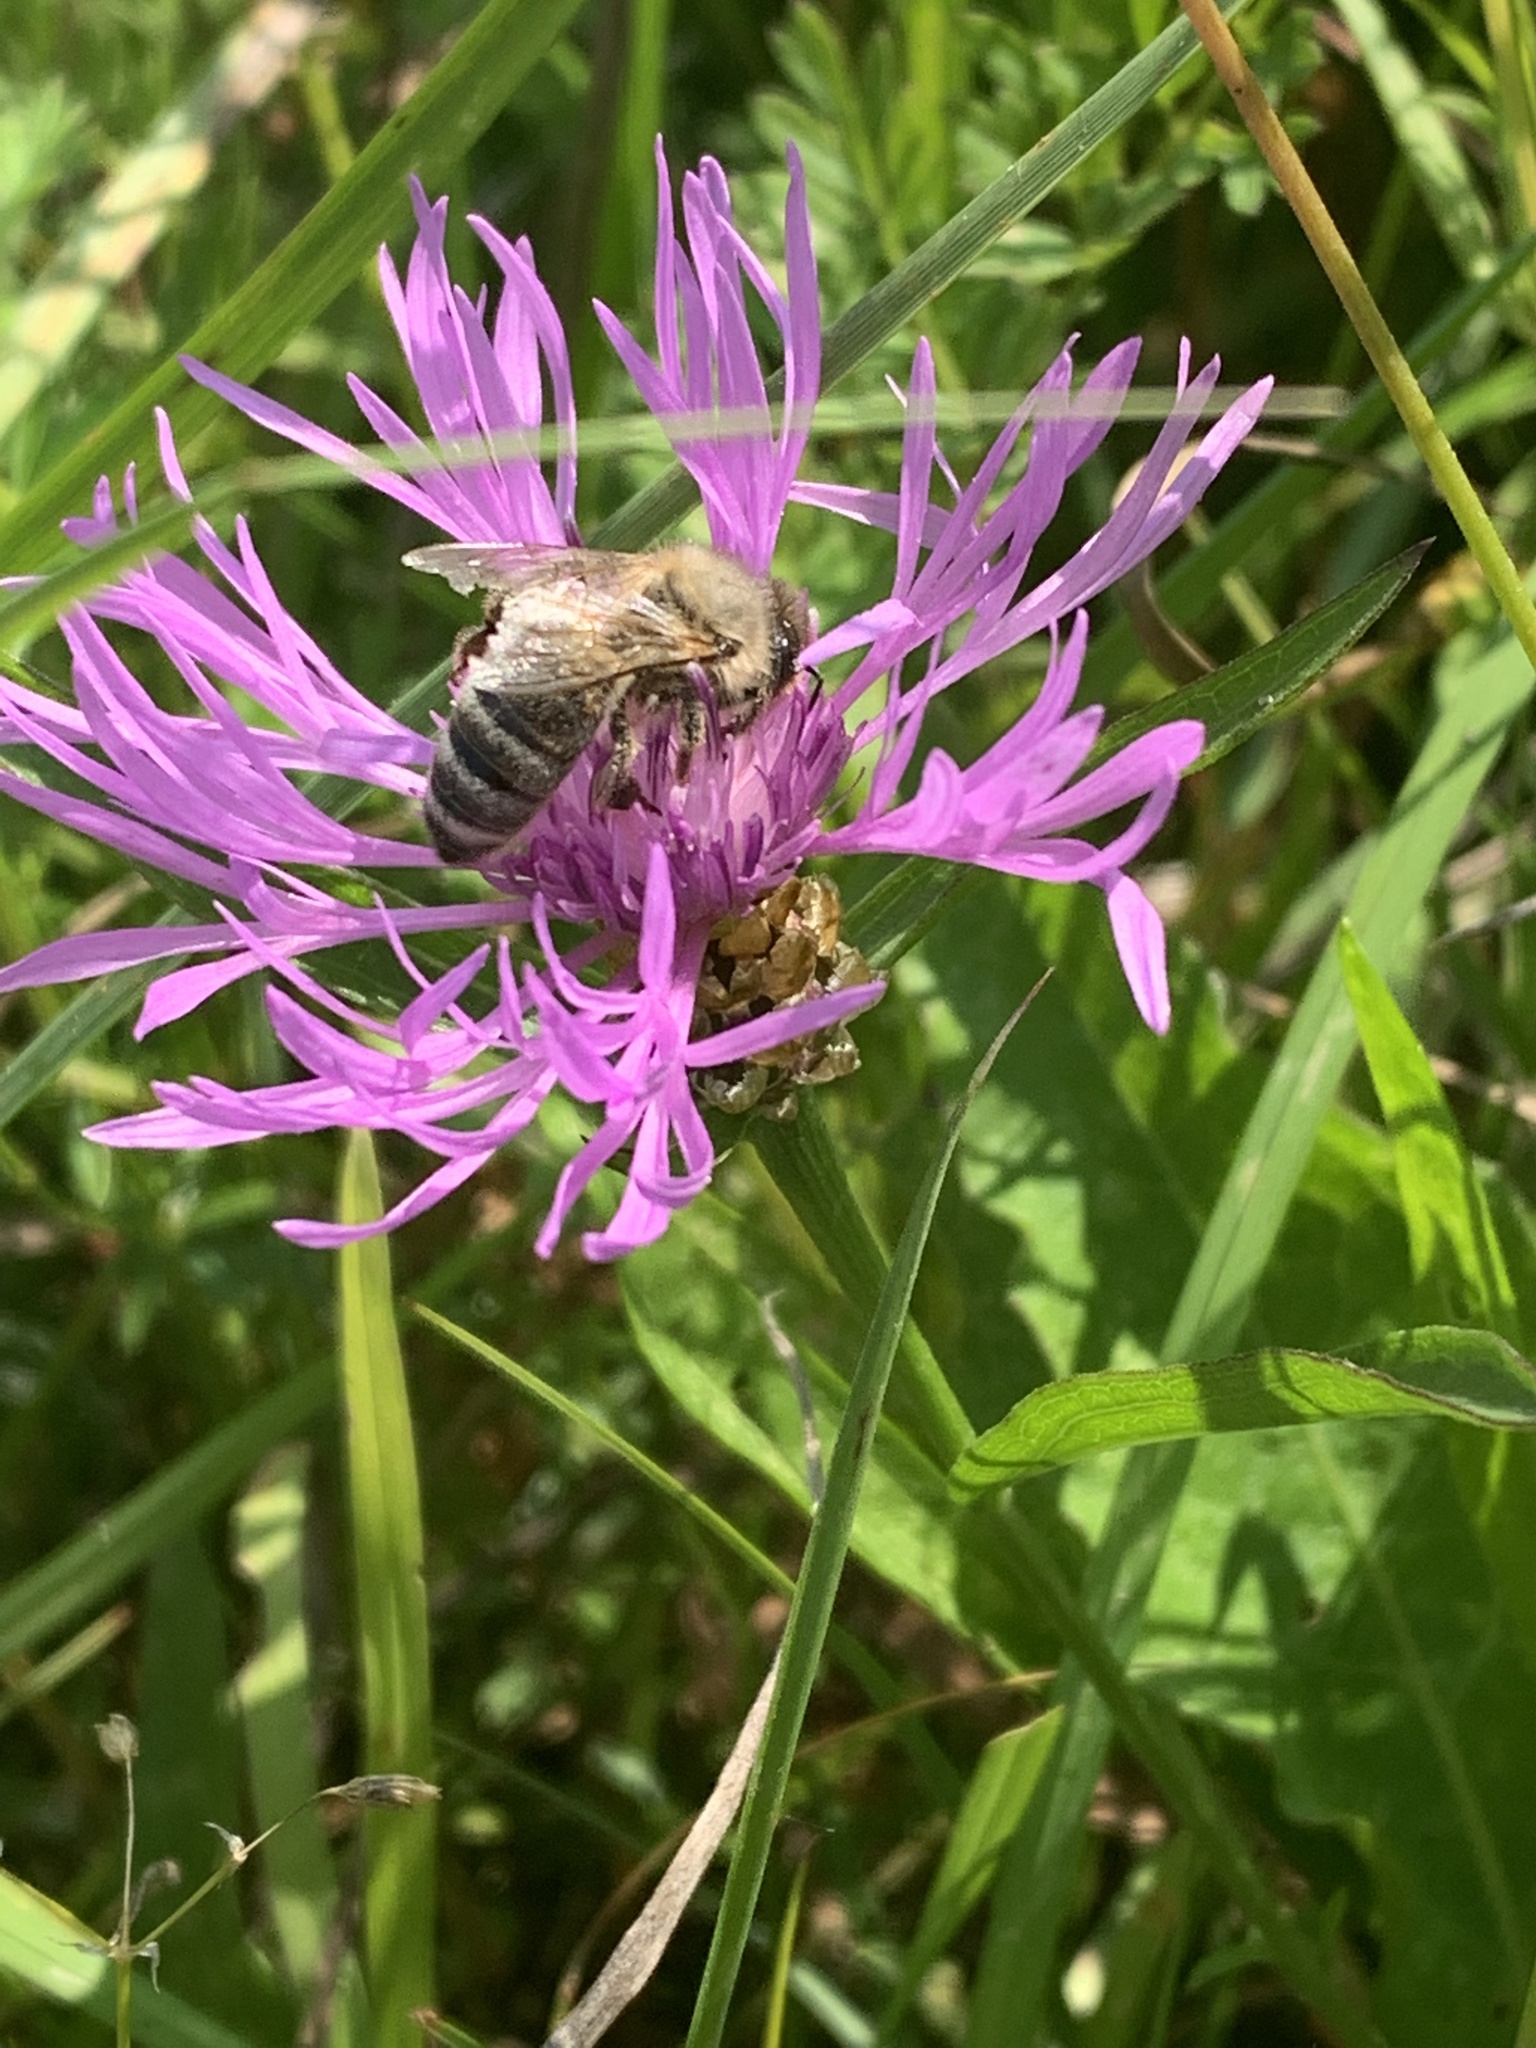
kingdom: Animalia
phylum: Arthropoda
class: Insecta
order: Hymenoptera
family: Apidae
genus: Apis
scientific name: Apis mellifera
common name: Honey bee
